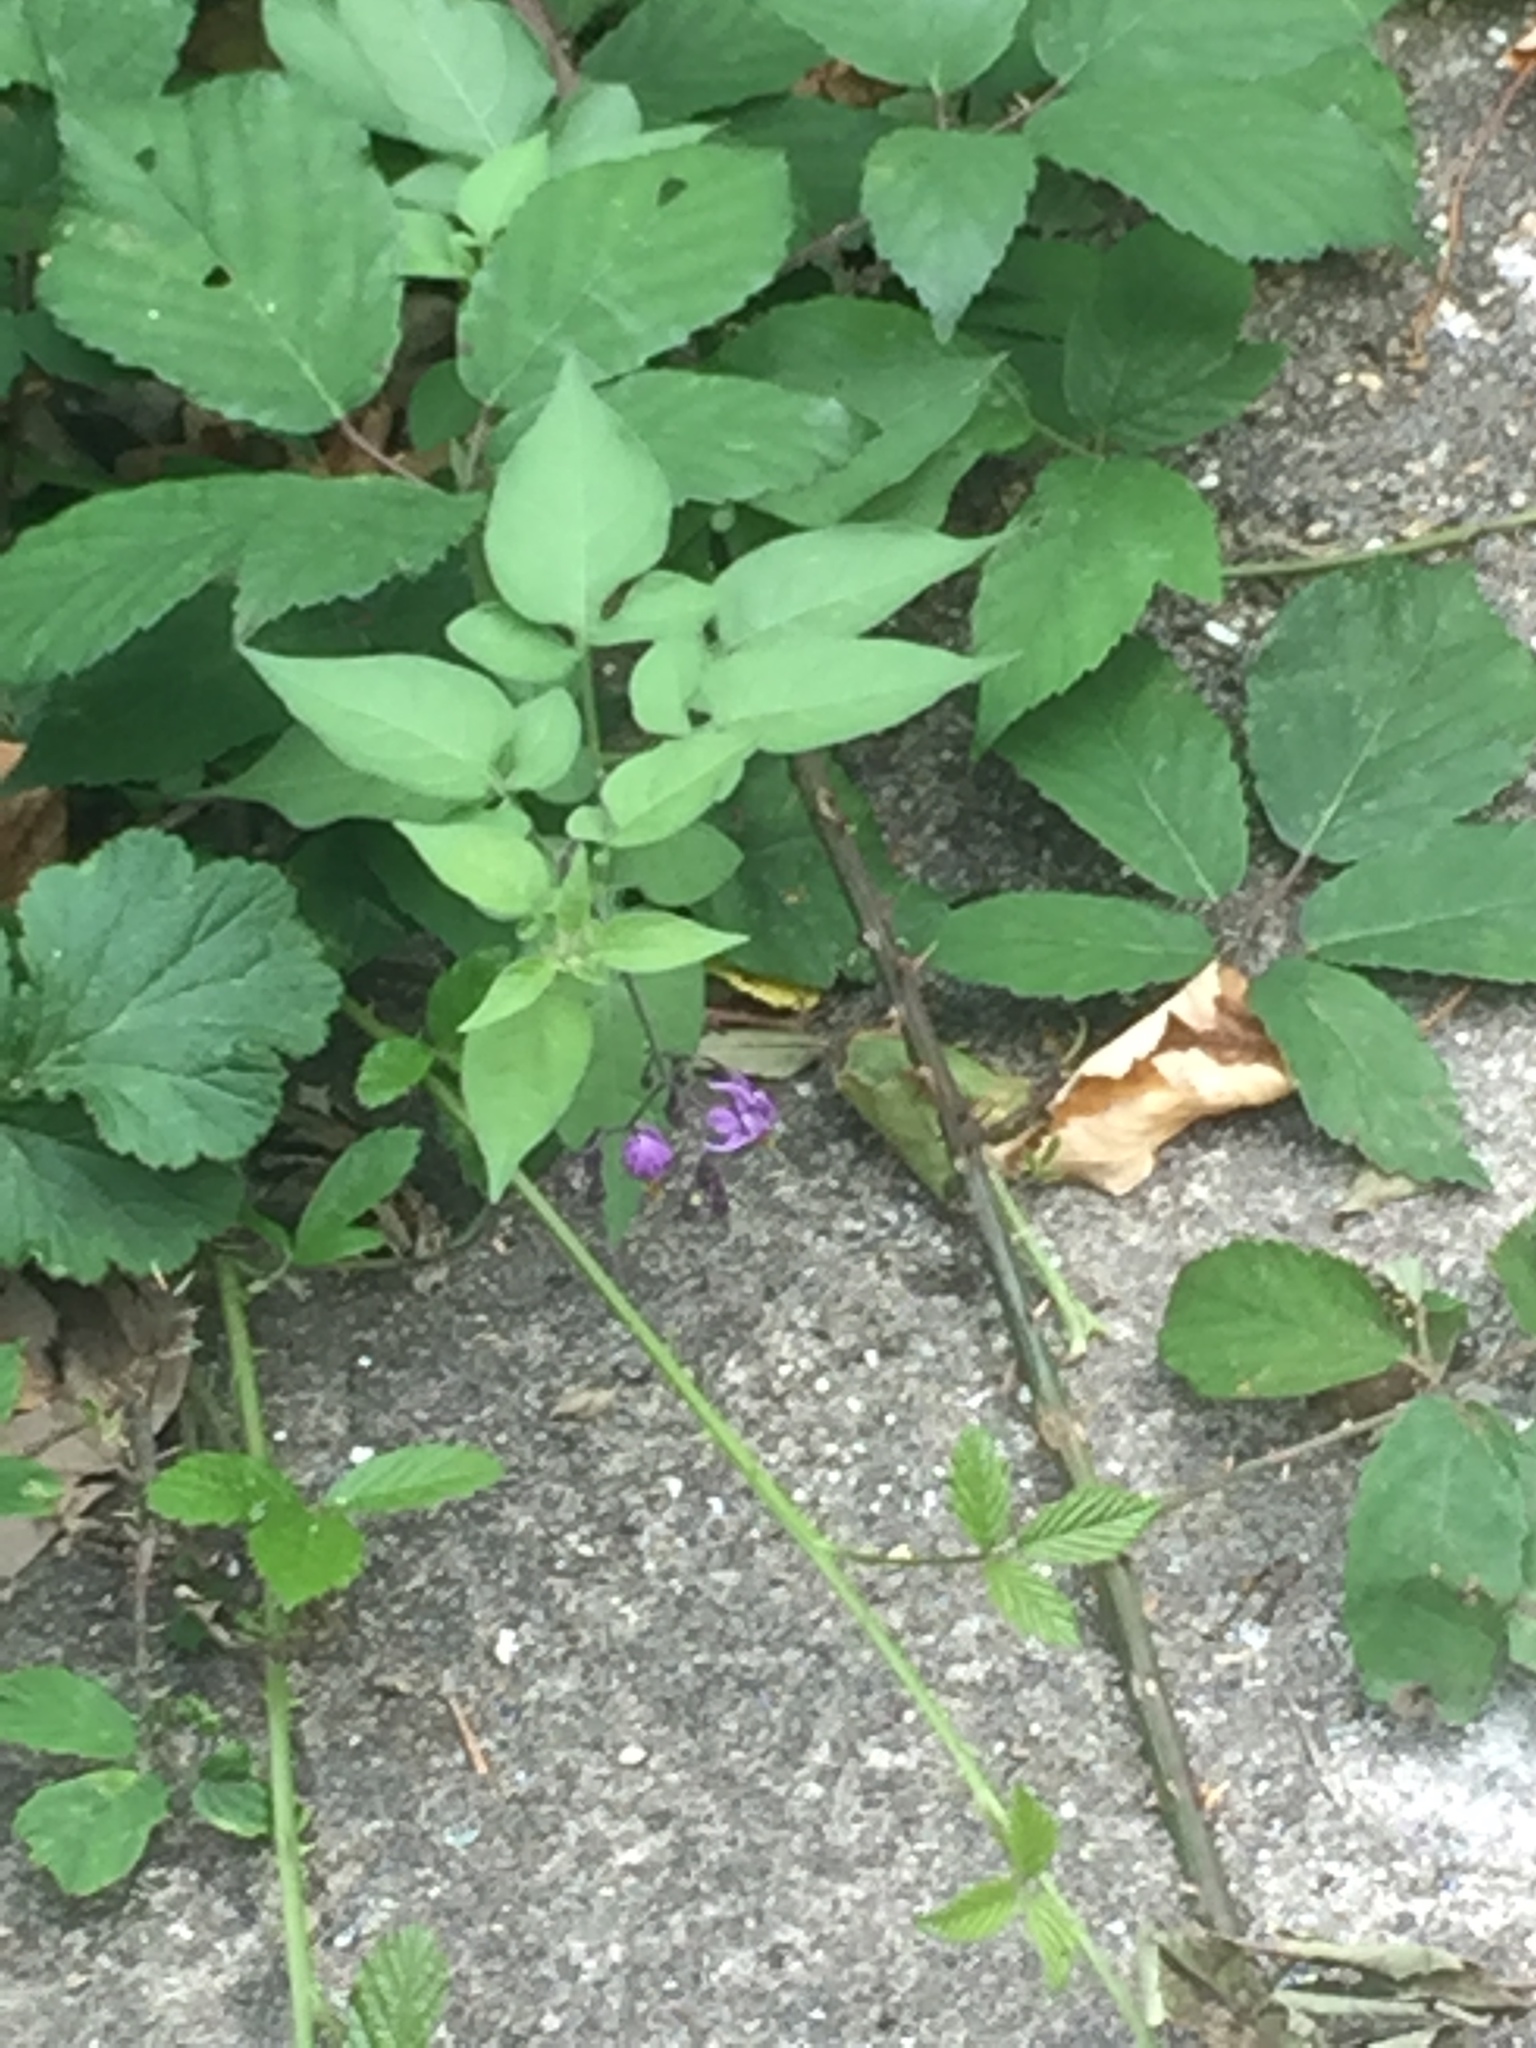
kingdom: Plantae
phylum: Tracheophyta
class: Magnoliopsida
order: Solanales
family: Solanaceae
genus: Solanum
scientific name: Solanum dulcamara
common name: Climbing nightshade
